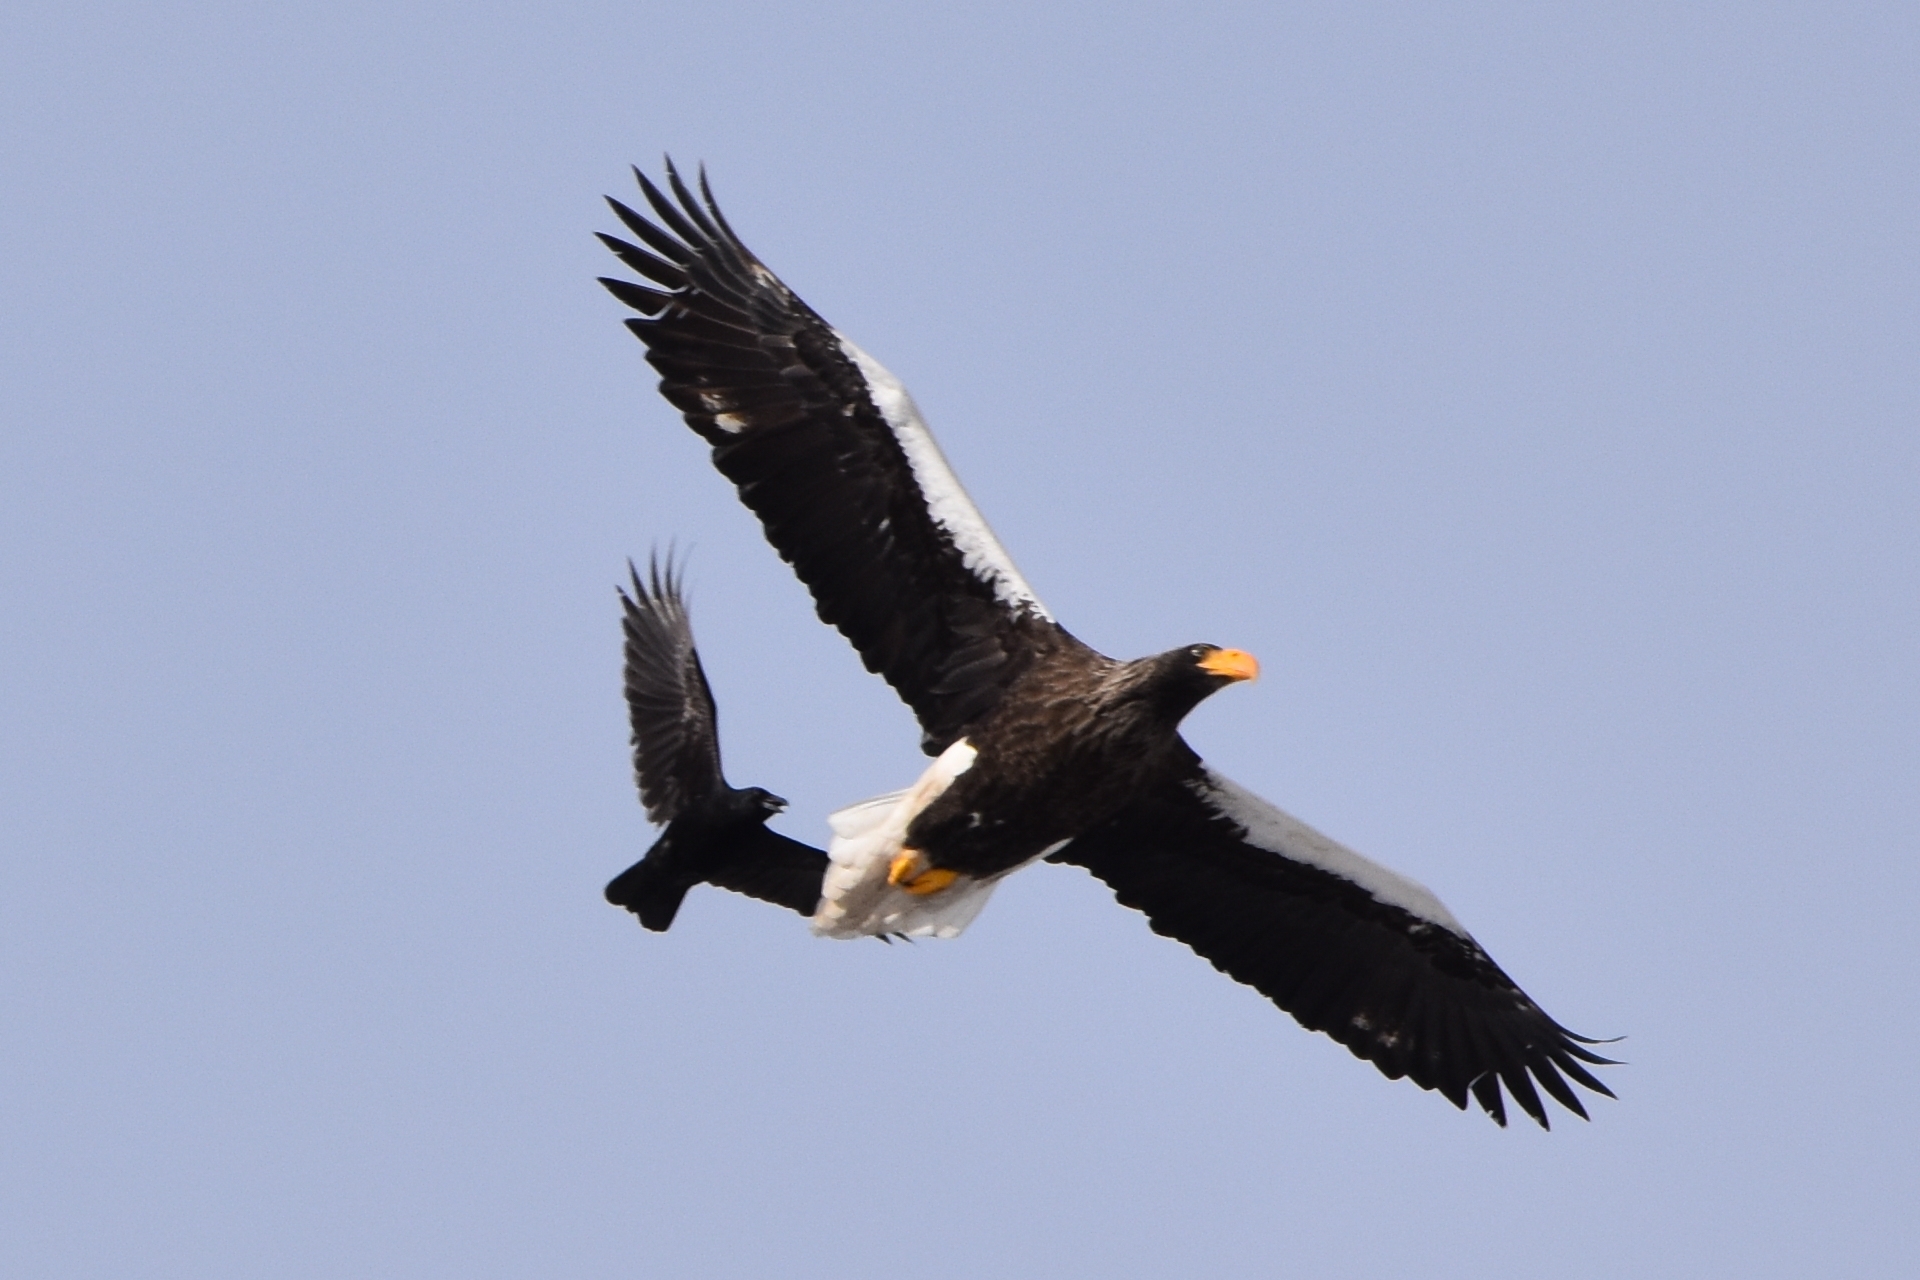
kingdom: Animalia
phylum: Chordata
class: Aves
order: Accipitriformes
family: Accipitridae
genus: Haliaeetus
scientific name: Haliaeetus pelagicus
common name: Steller's sea eagle
